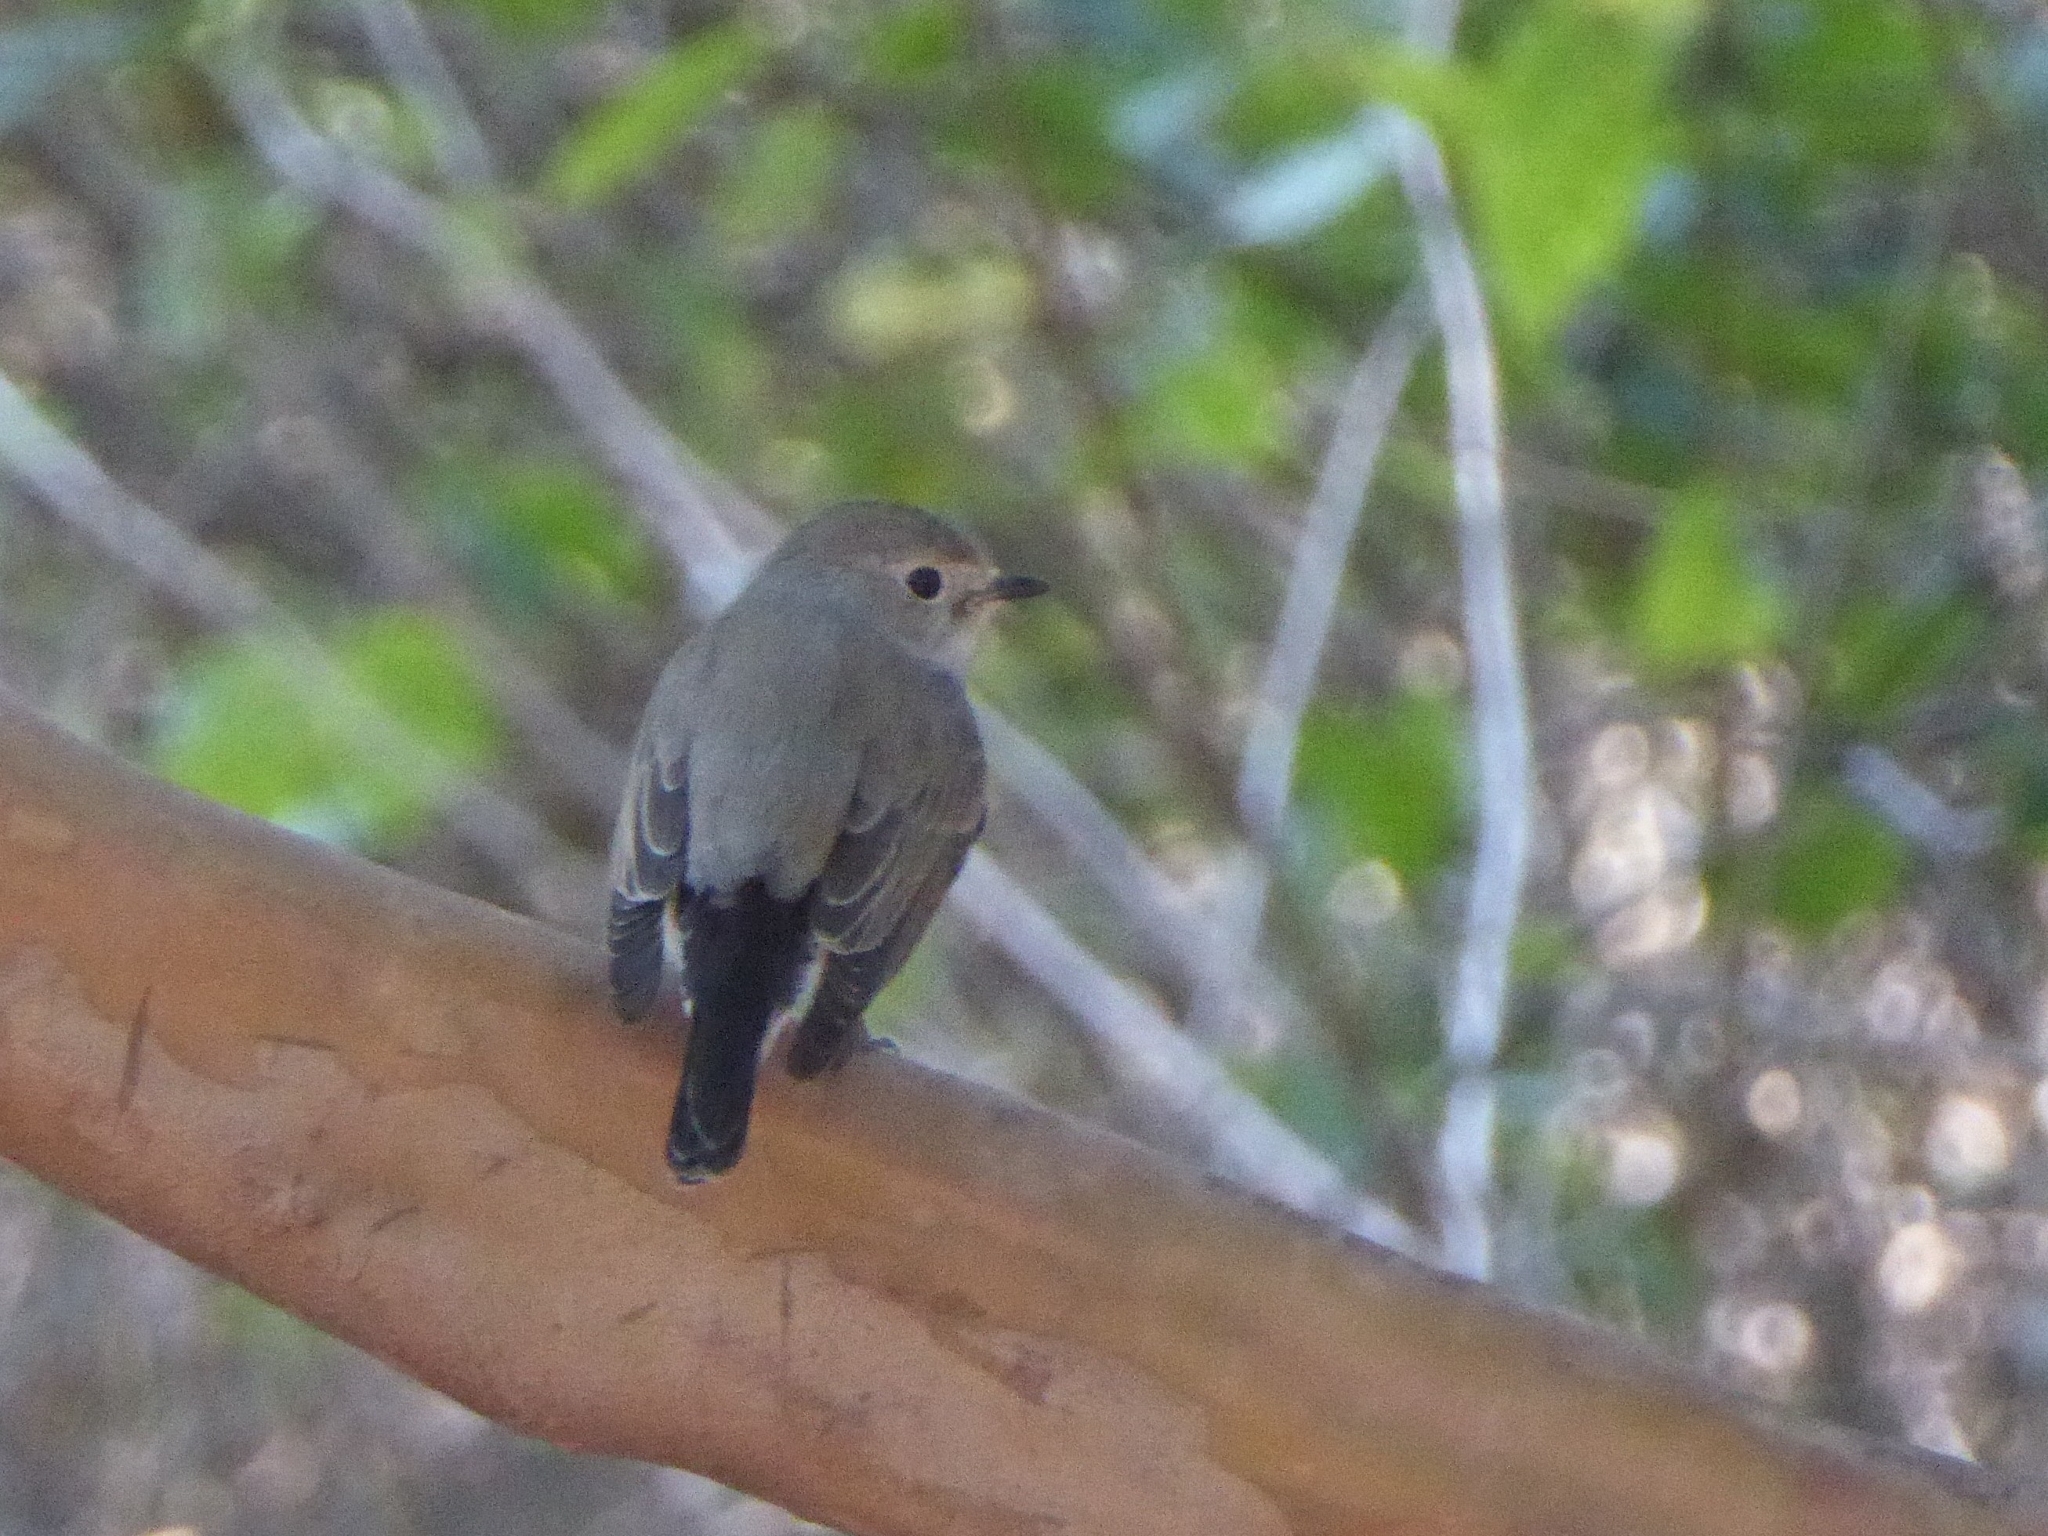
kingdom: Animalia
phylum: Chordata
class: Aves
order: Passeriformes
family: Muscicapidae
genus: Ficedula
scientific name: Ficedula albicilla
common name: Taiga flycatcher
